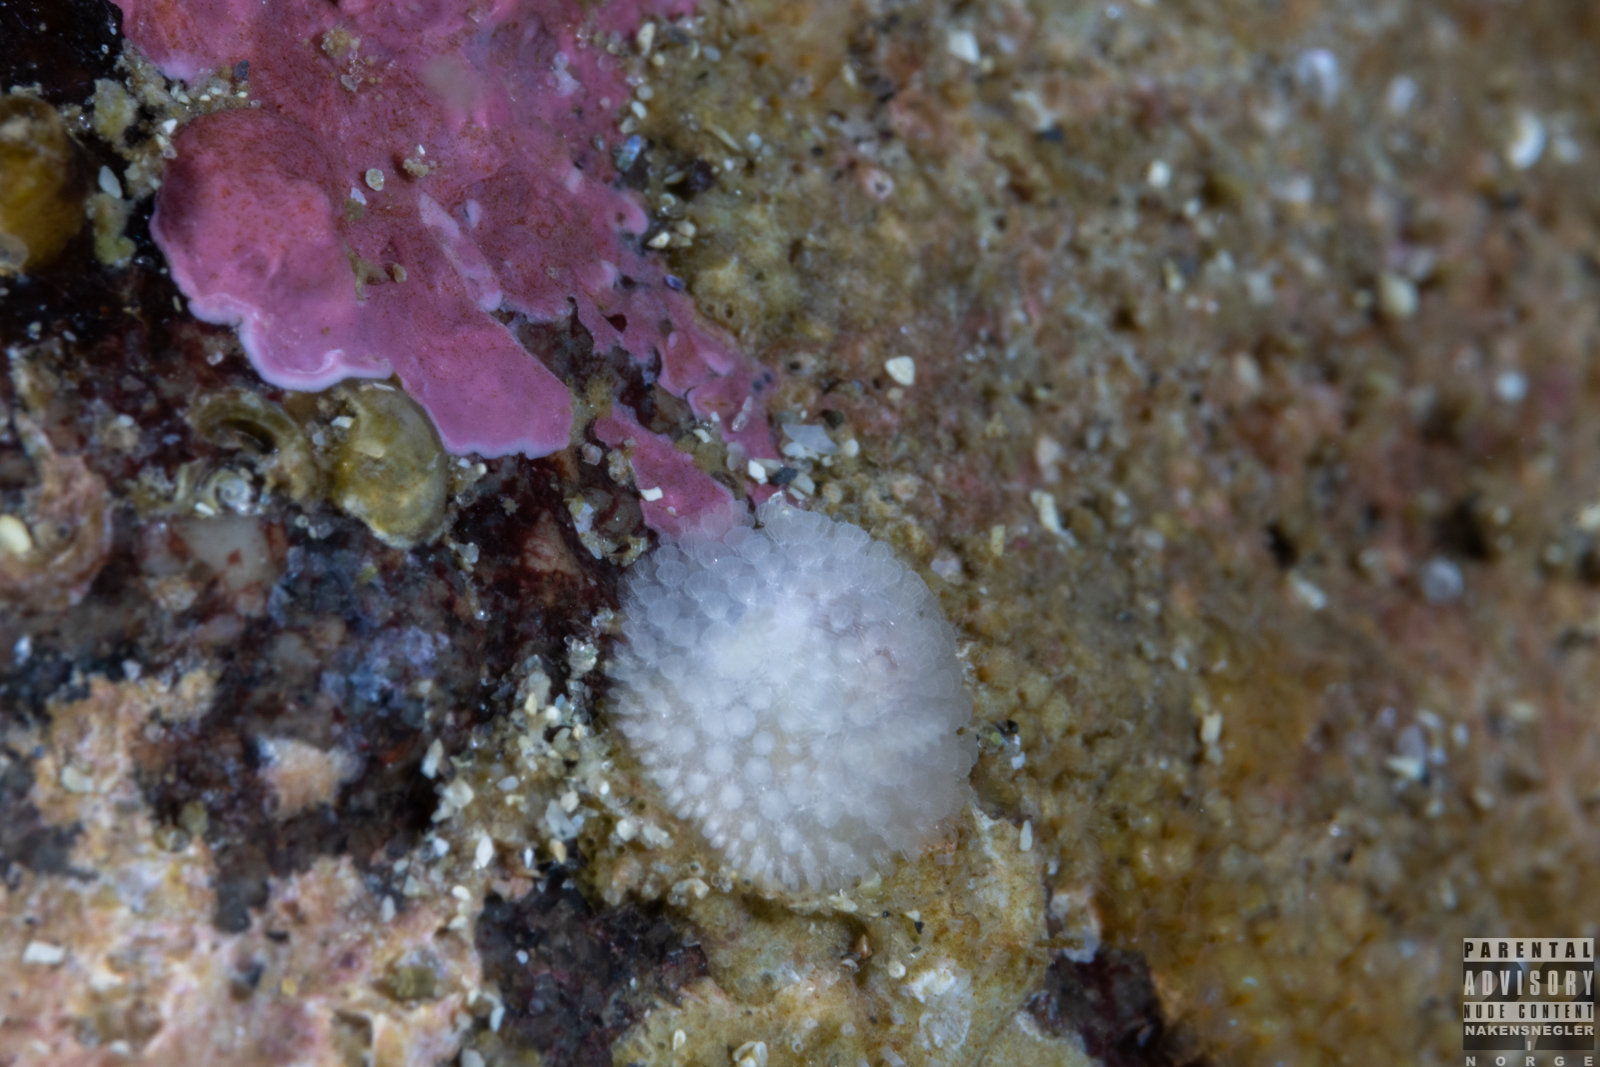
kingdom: Animalia
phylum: Mollusca
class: Gastropoda
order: Nudibranchia
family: Onchidorididae
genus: Onchidoris
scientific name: Onchidoris muricata
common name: Rough doris
